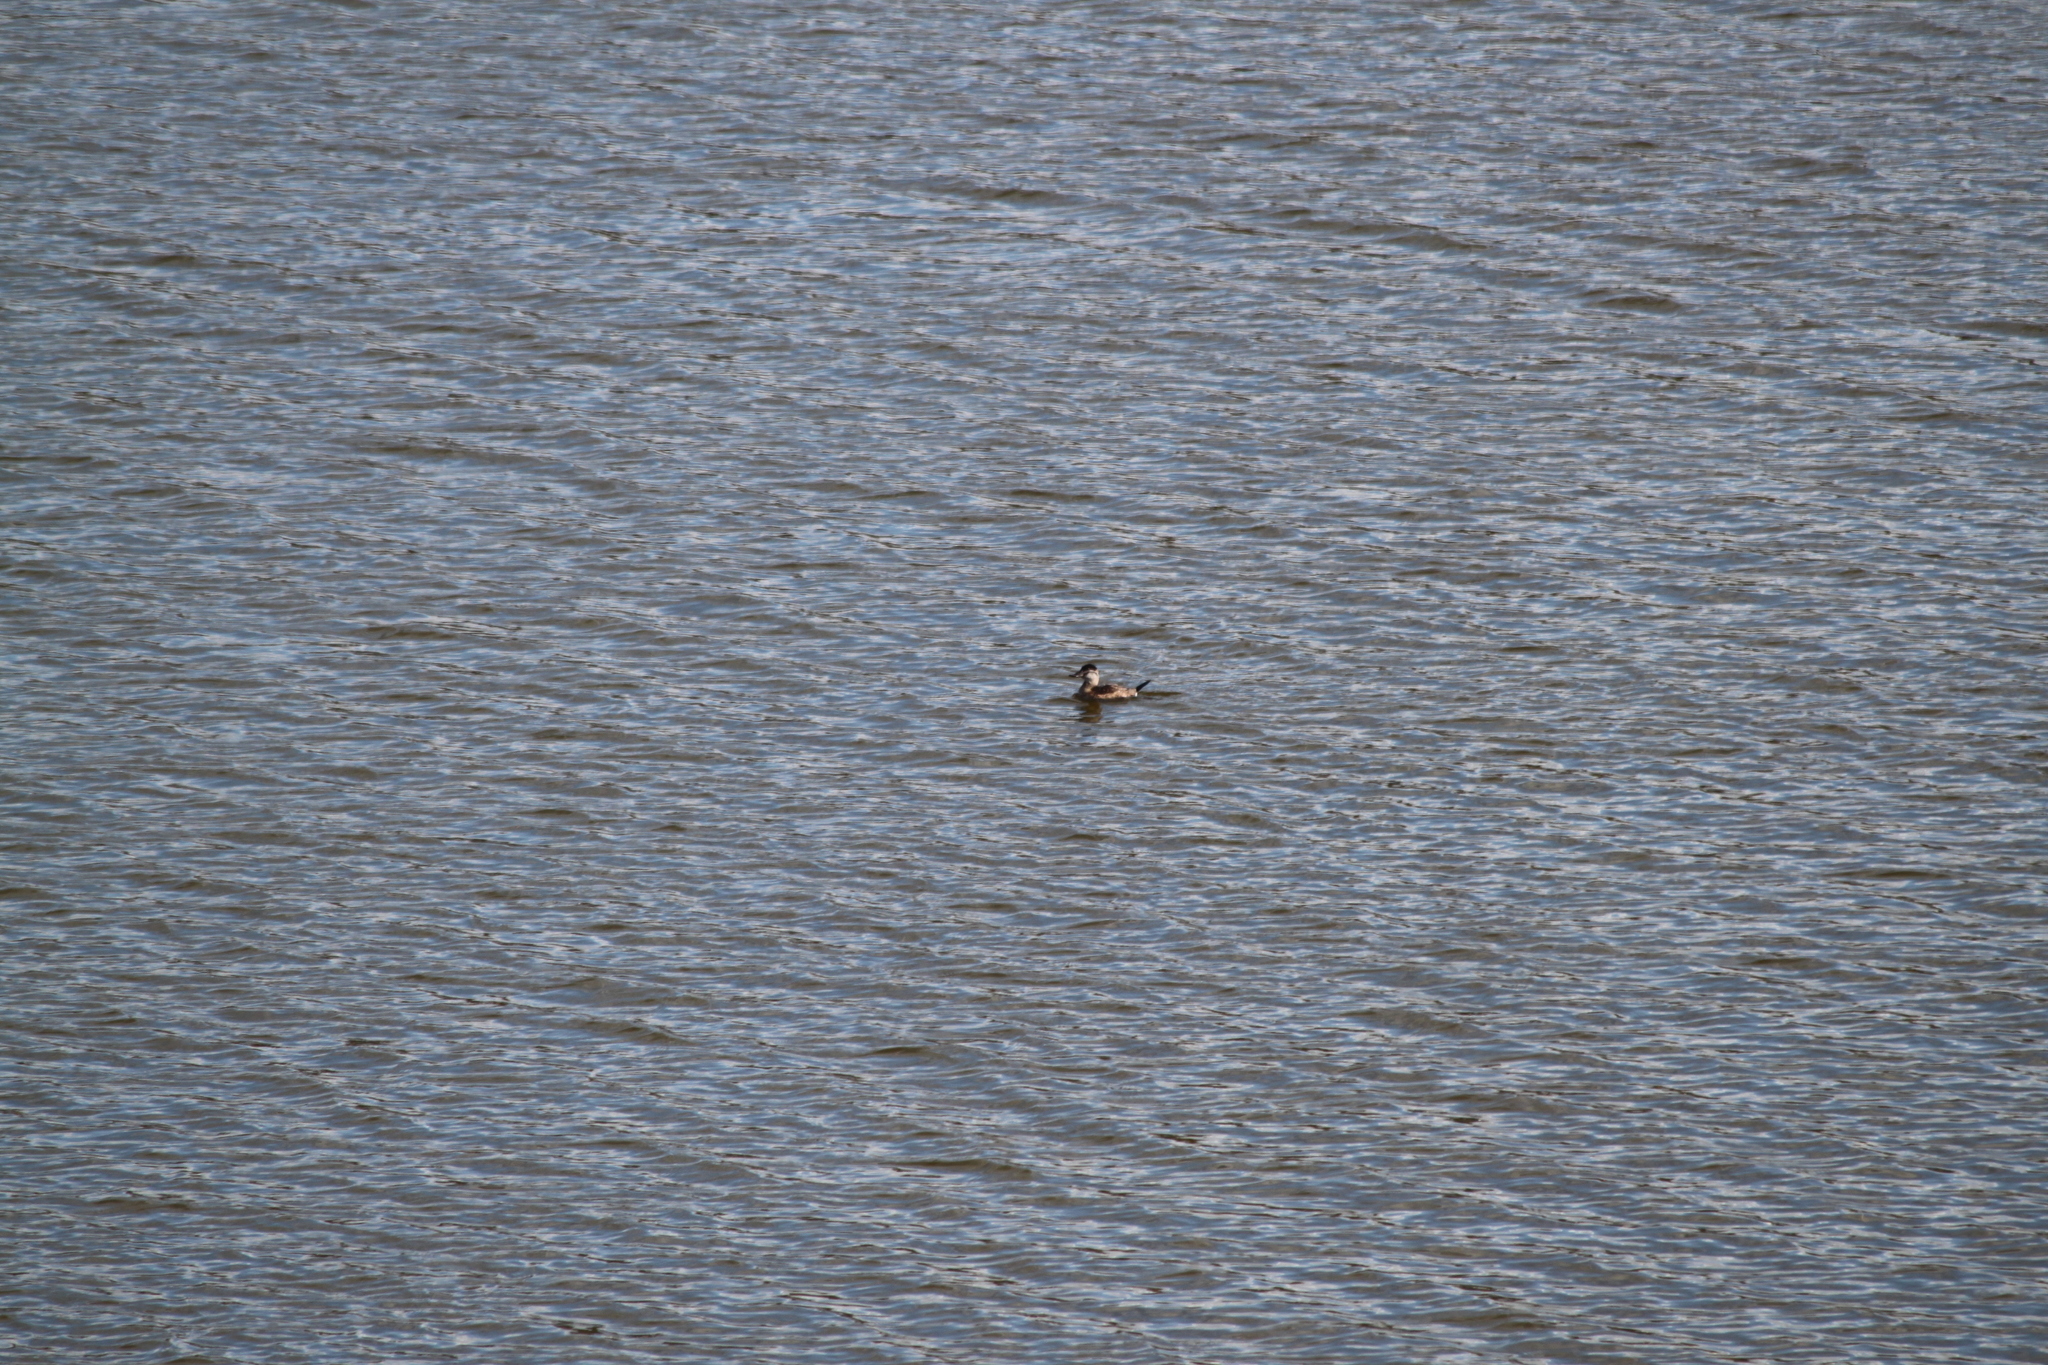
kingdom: Animalia
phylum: Chordata
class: Aves
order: Anseriformes
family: Anatidae
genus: Oxyura
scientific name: Oxyura jamaicensis
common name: Ruddy duck
